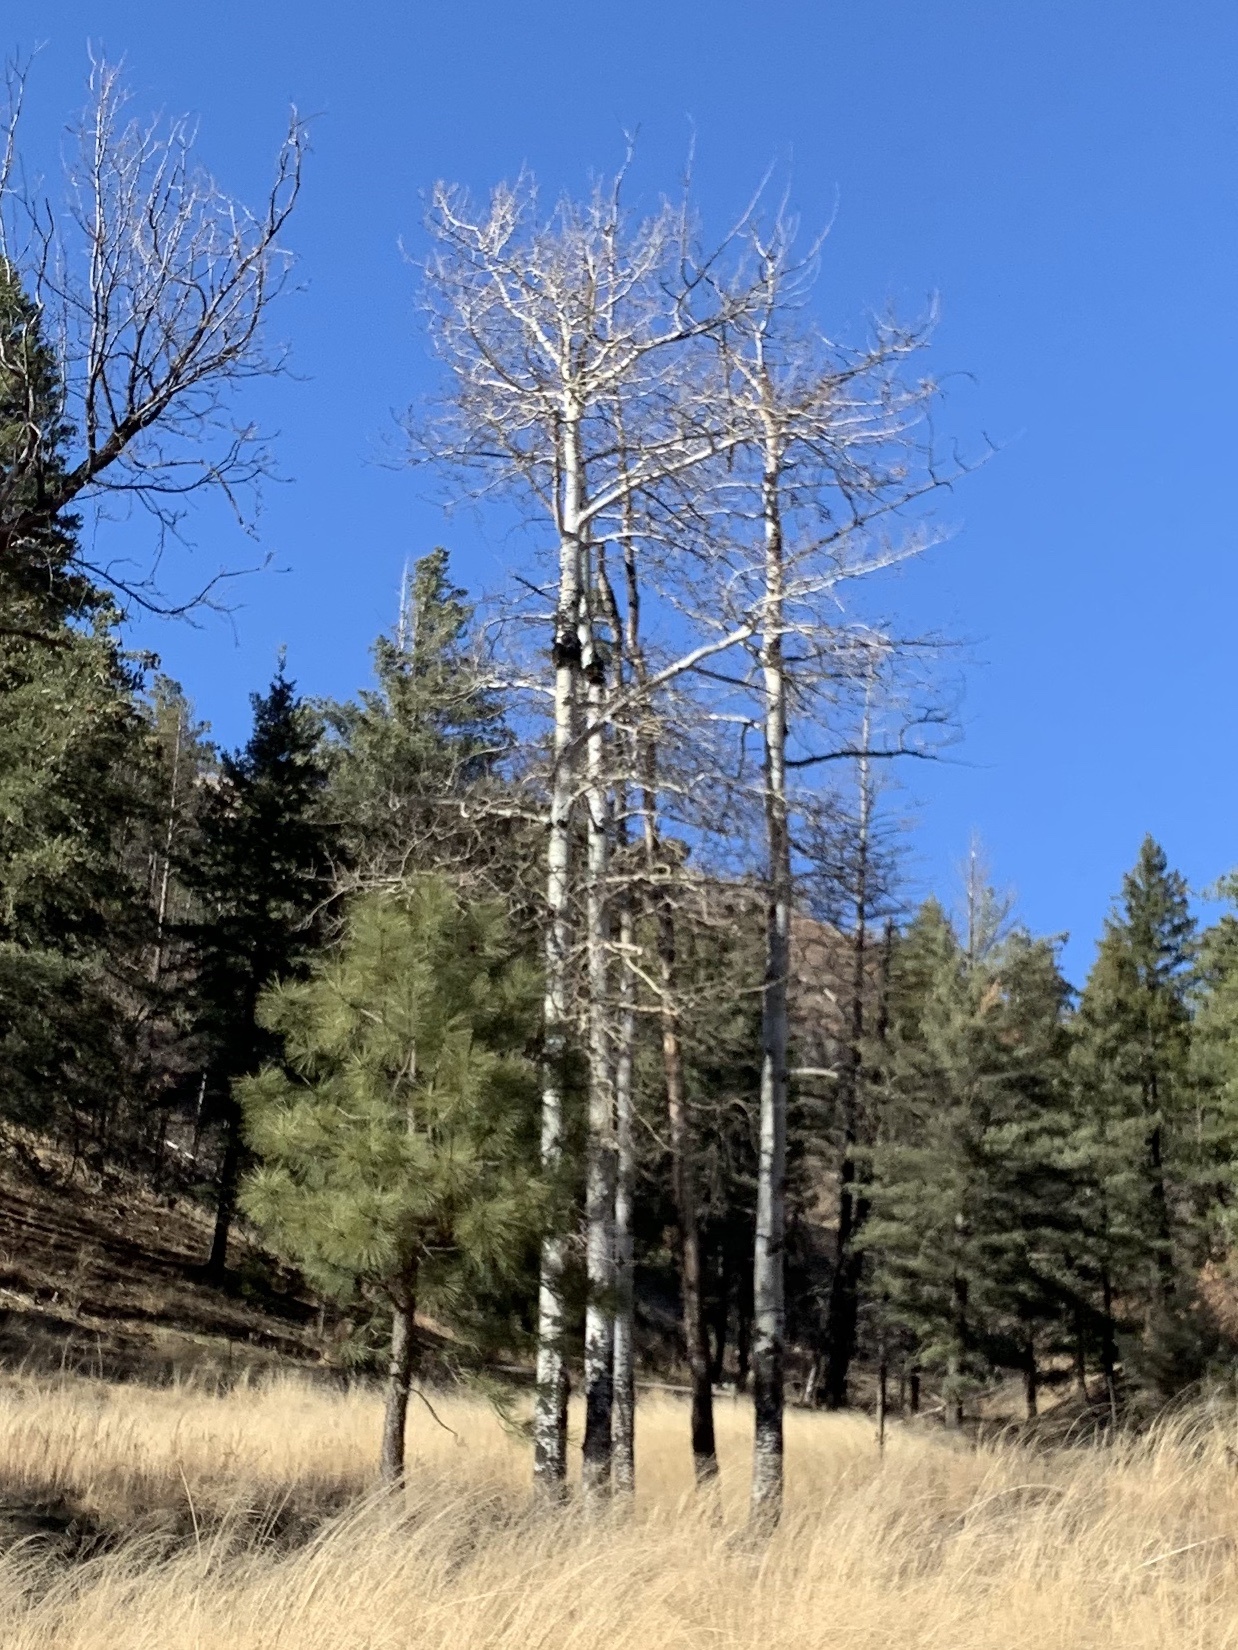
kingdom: Plantae
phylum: Tracheophyta
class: Magnoliopsida
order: Malpighiales
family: Salicaceae
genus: Populus
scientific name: Populus tremuloides
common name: Quaking aspen
